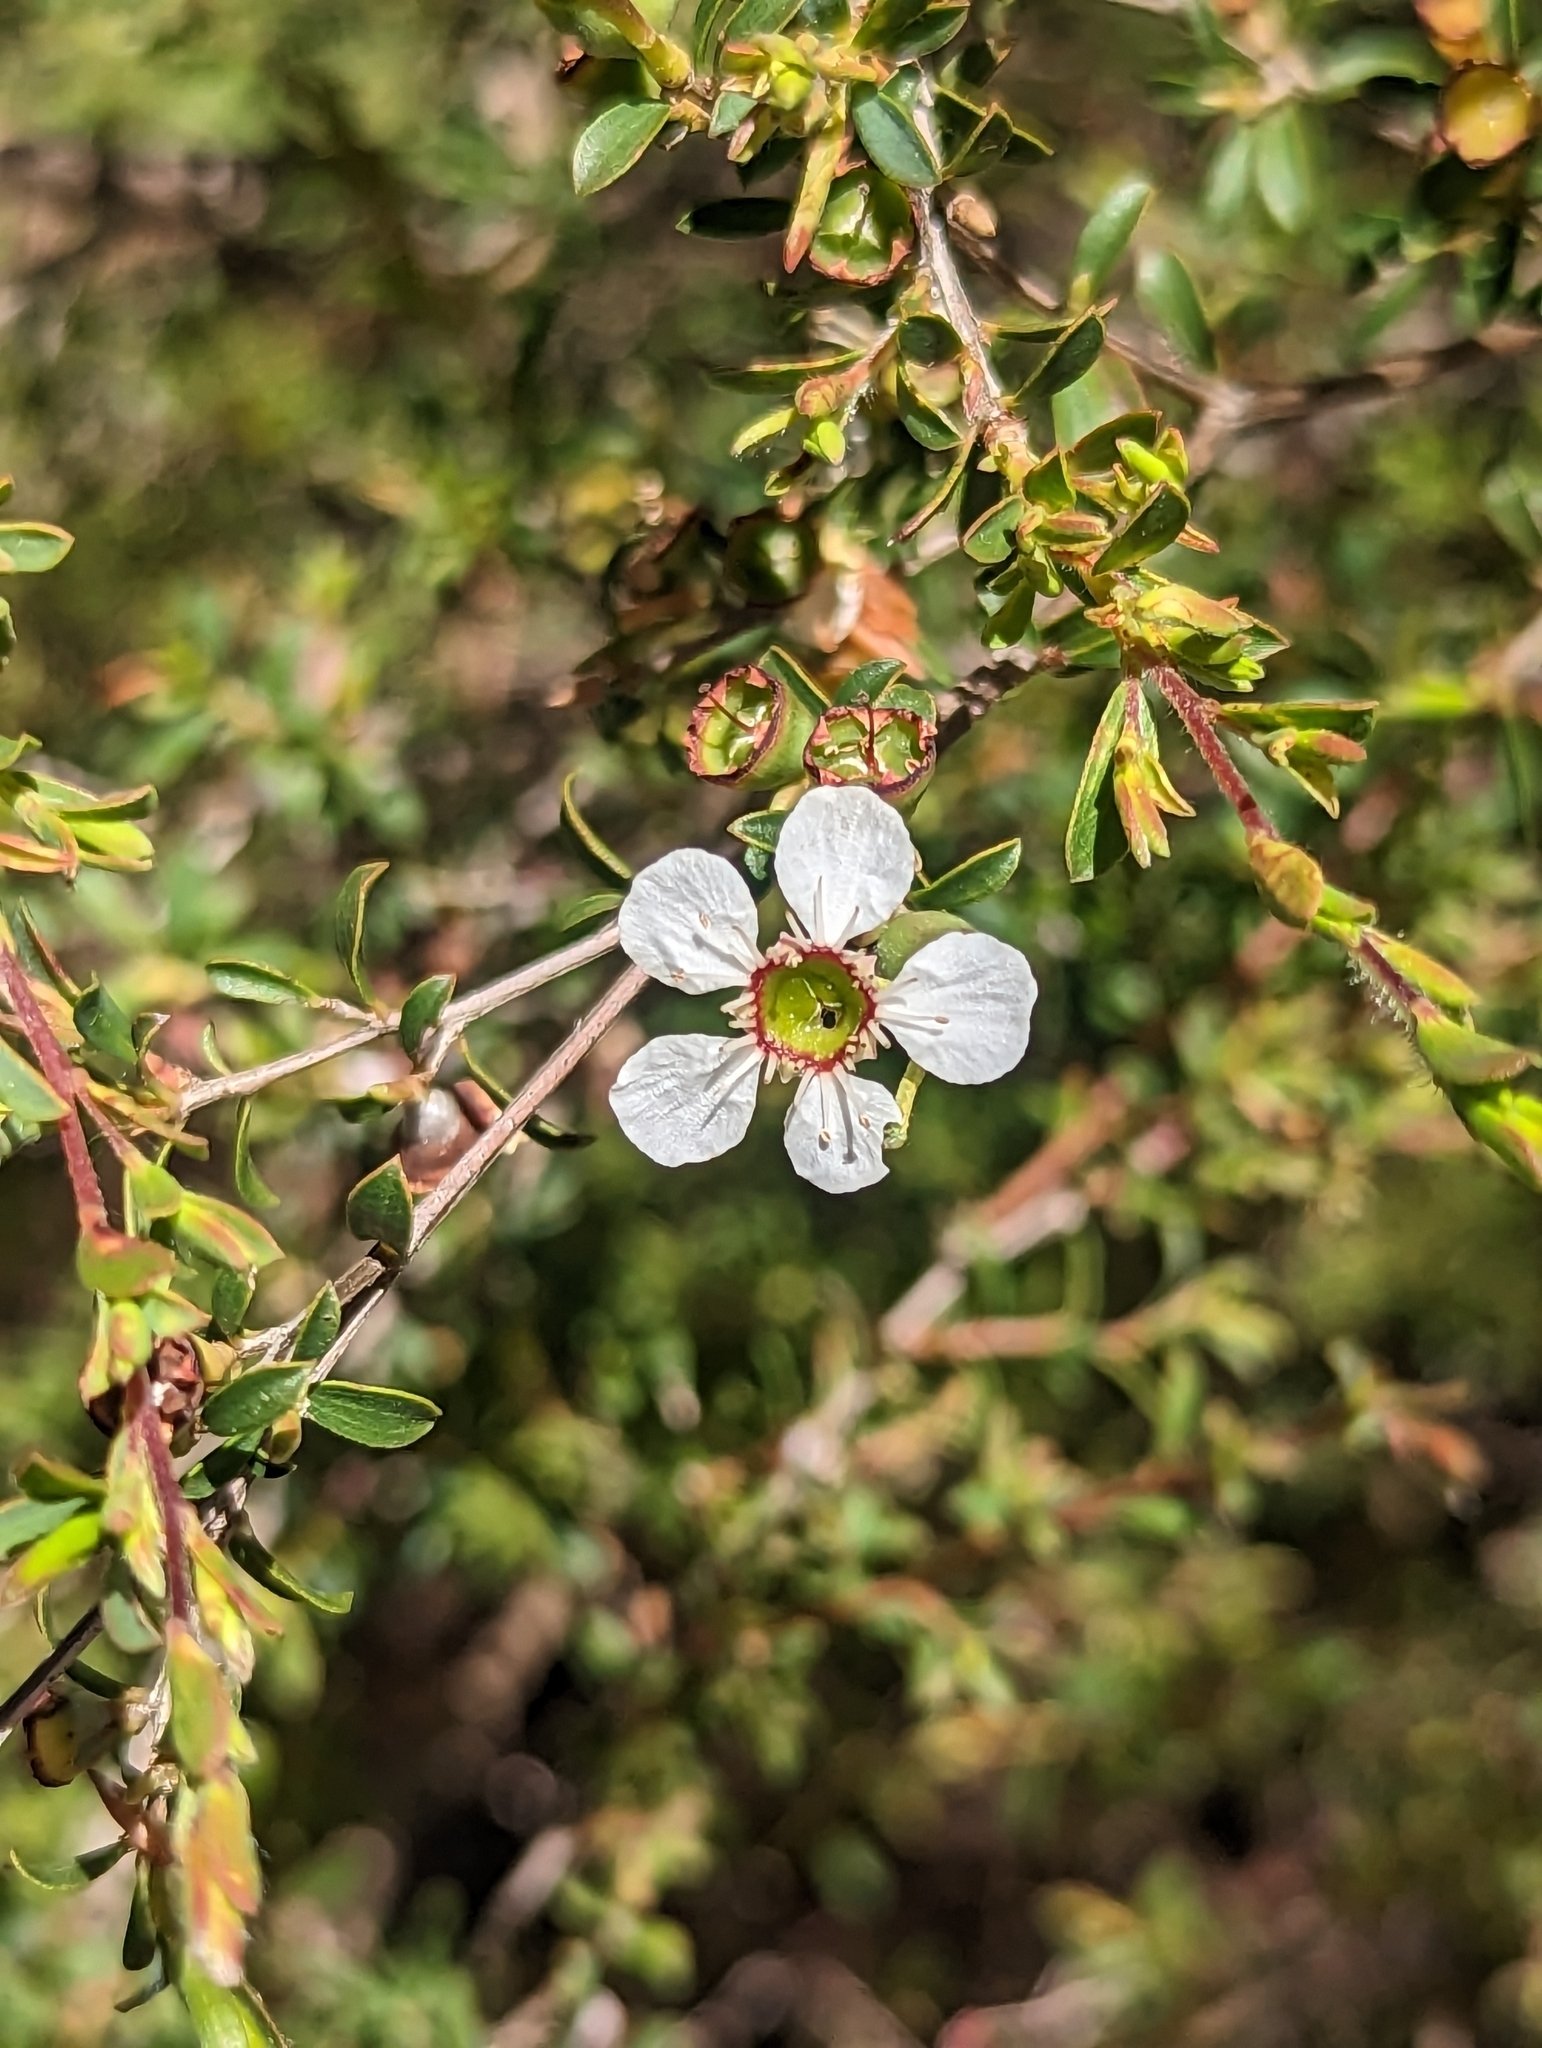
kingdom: Plantae
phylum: Tracheophyta
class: Magnoliopsida
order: Myrtales
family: Myrtaceae
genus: Leptospermum
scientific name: Leptospermum myrsinoides
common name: Heath teatree
